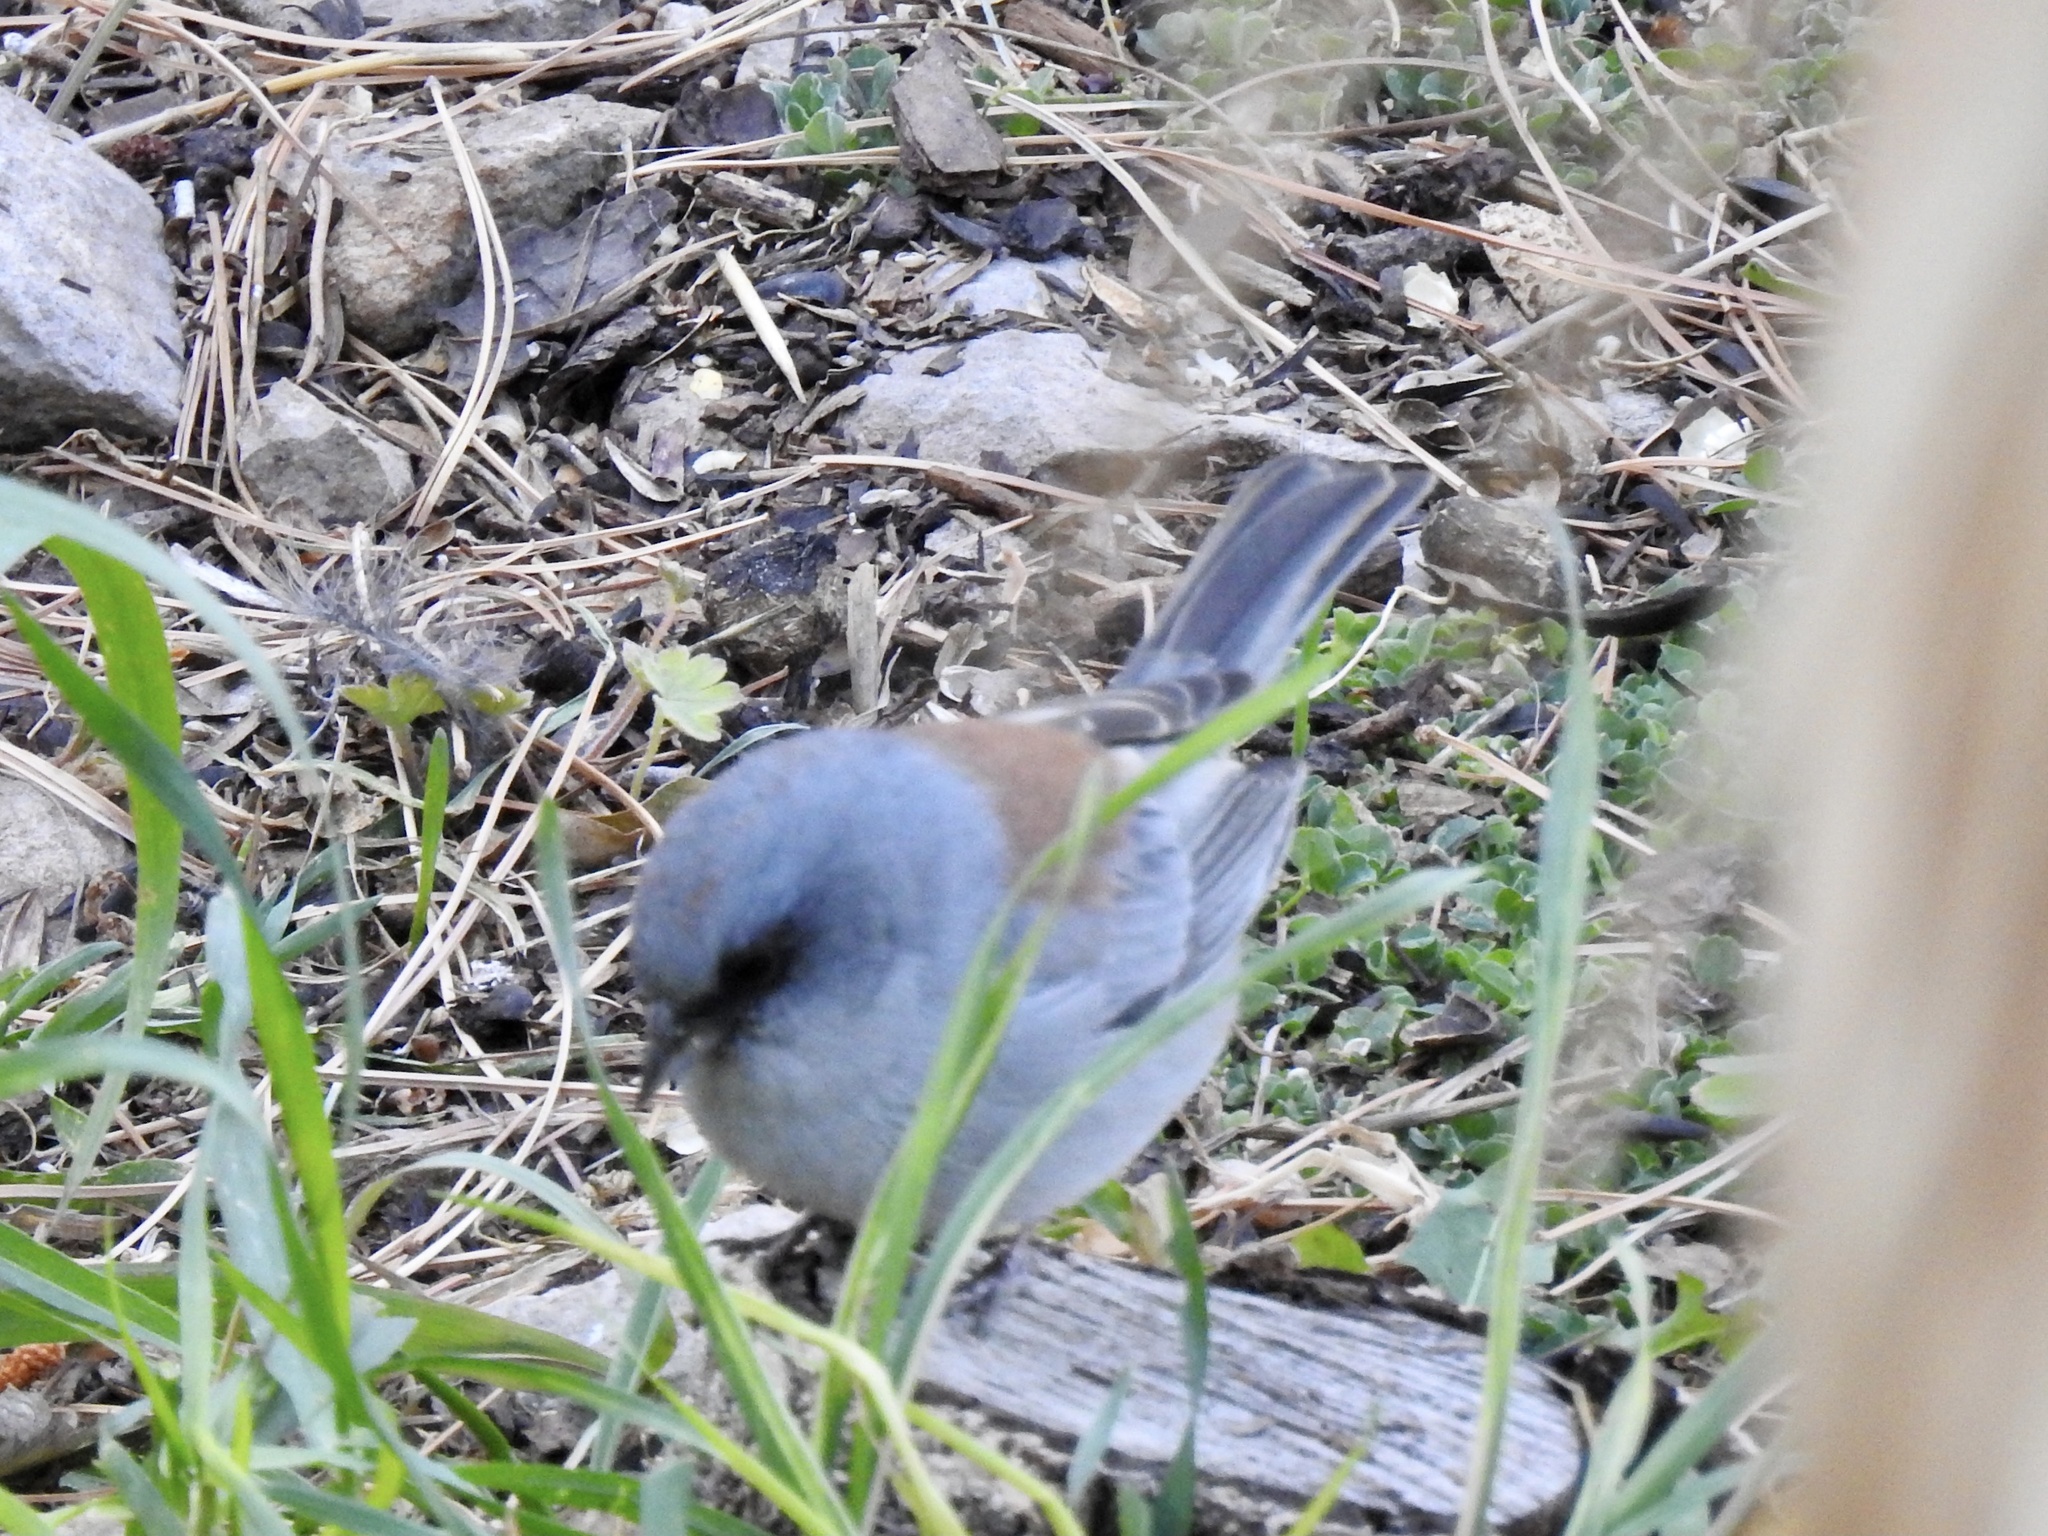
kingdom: Animalia
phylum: Chordata
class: Aves
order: Passeriformes
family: Passerellidae
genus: Junco
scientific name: Junco hyemalis
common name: Dark-eyed junco
